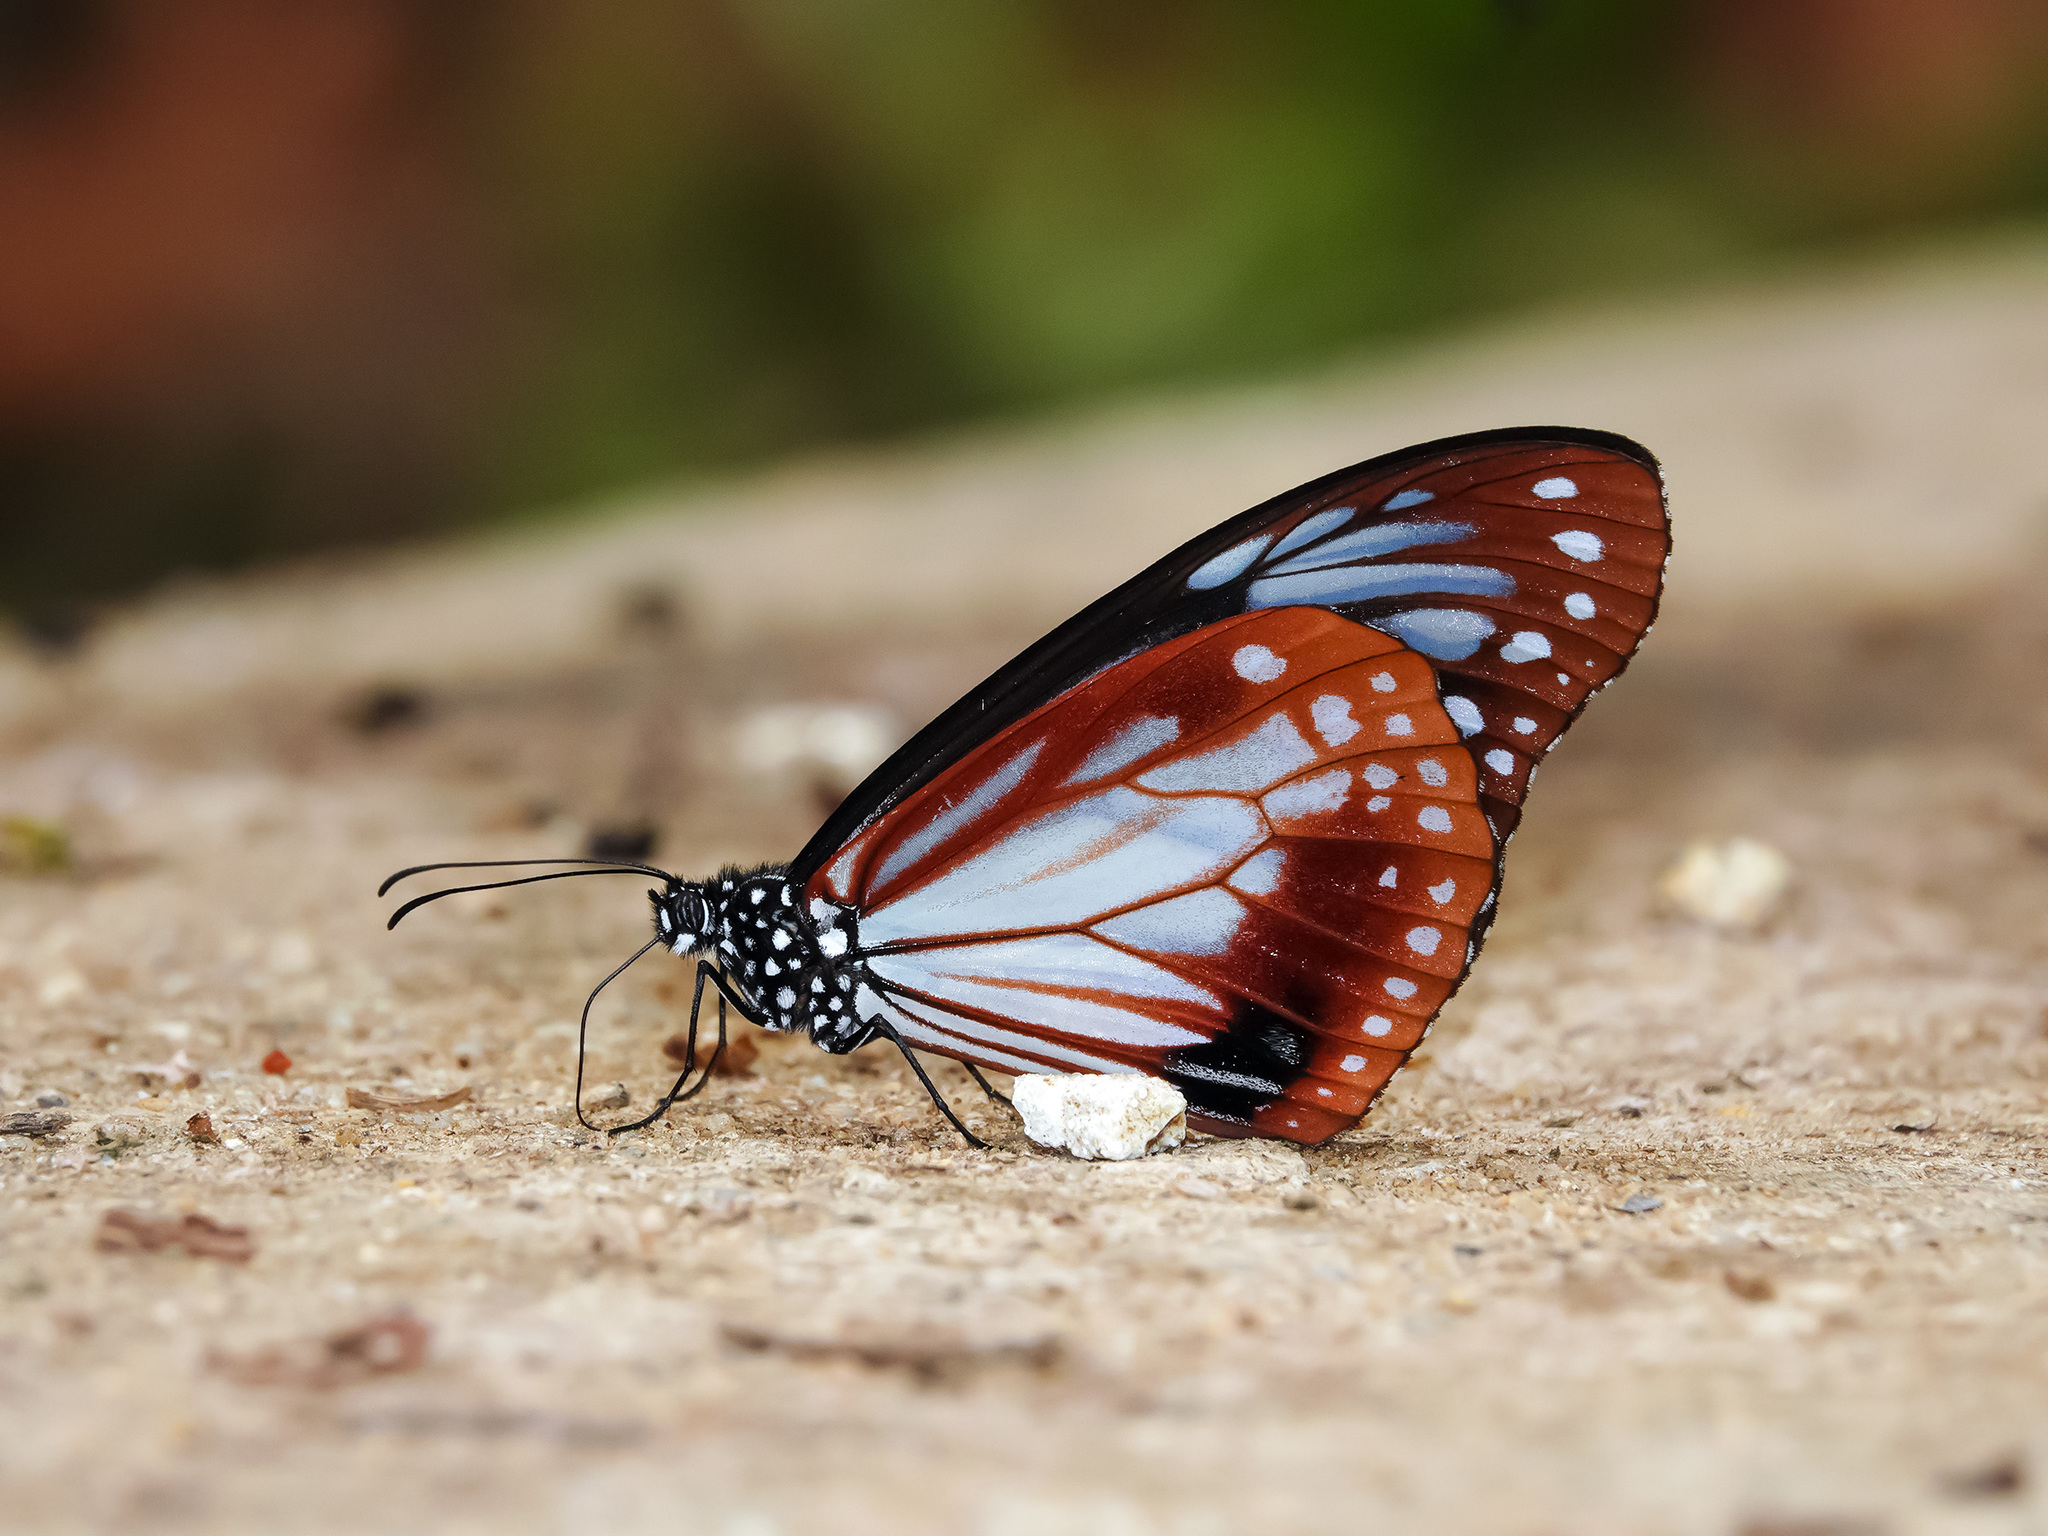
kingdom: Animalia
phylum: Arthropoda
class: Insecta
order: Lepidoptera
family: Nymphalidae
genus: Parantica
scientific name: Parantica sita
